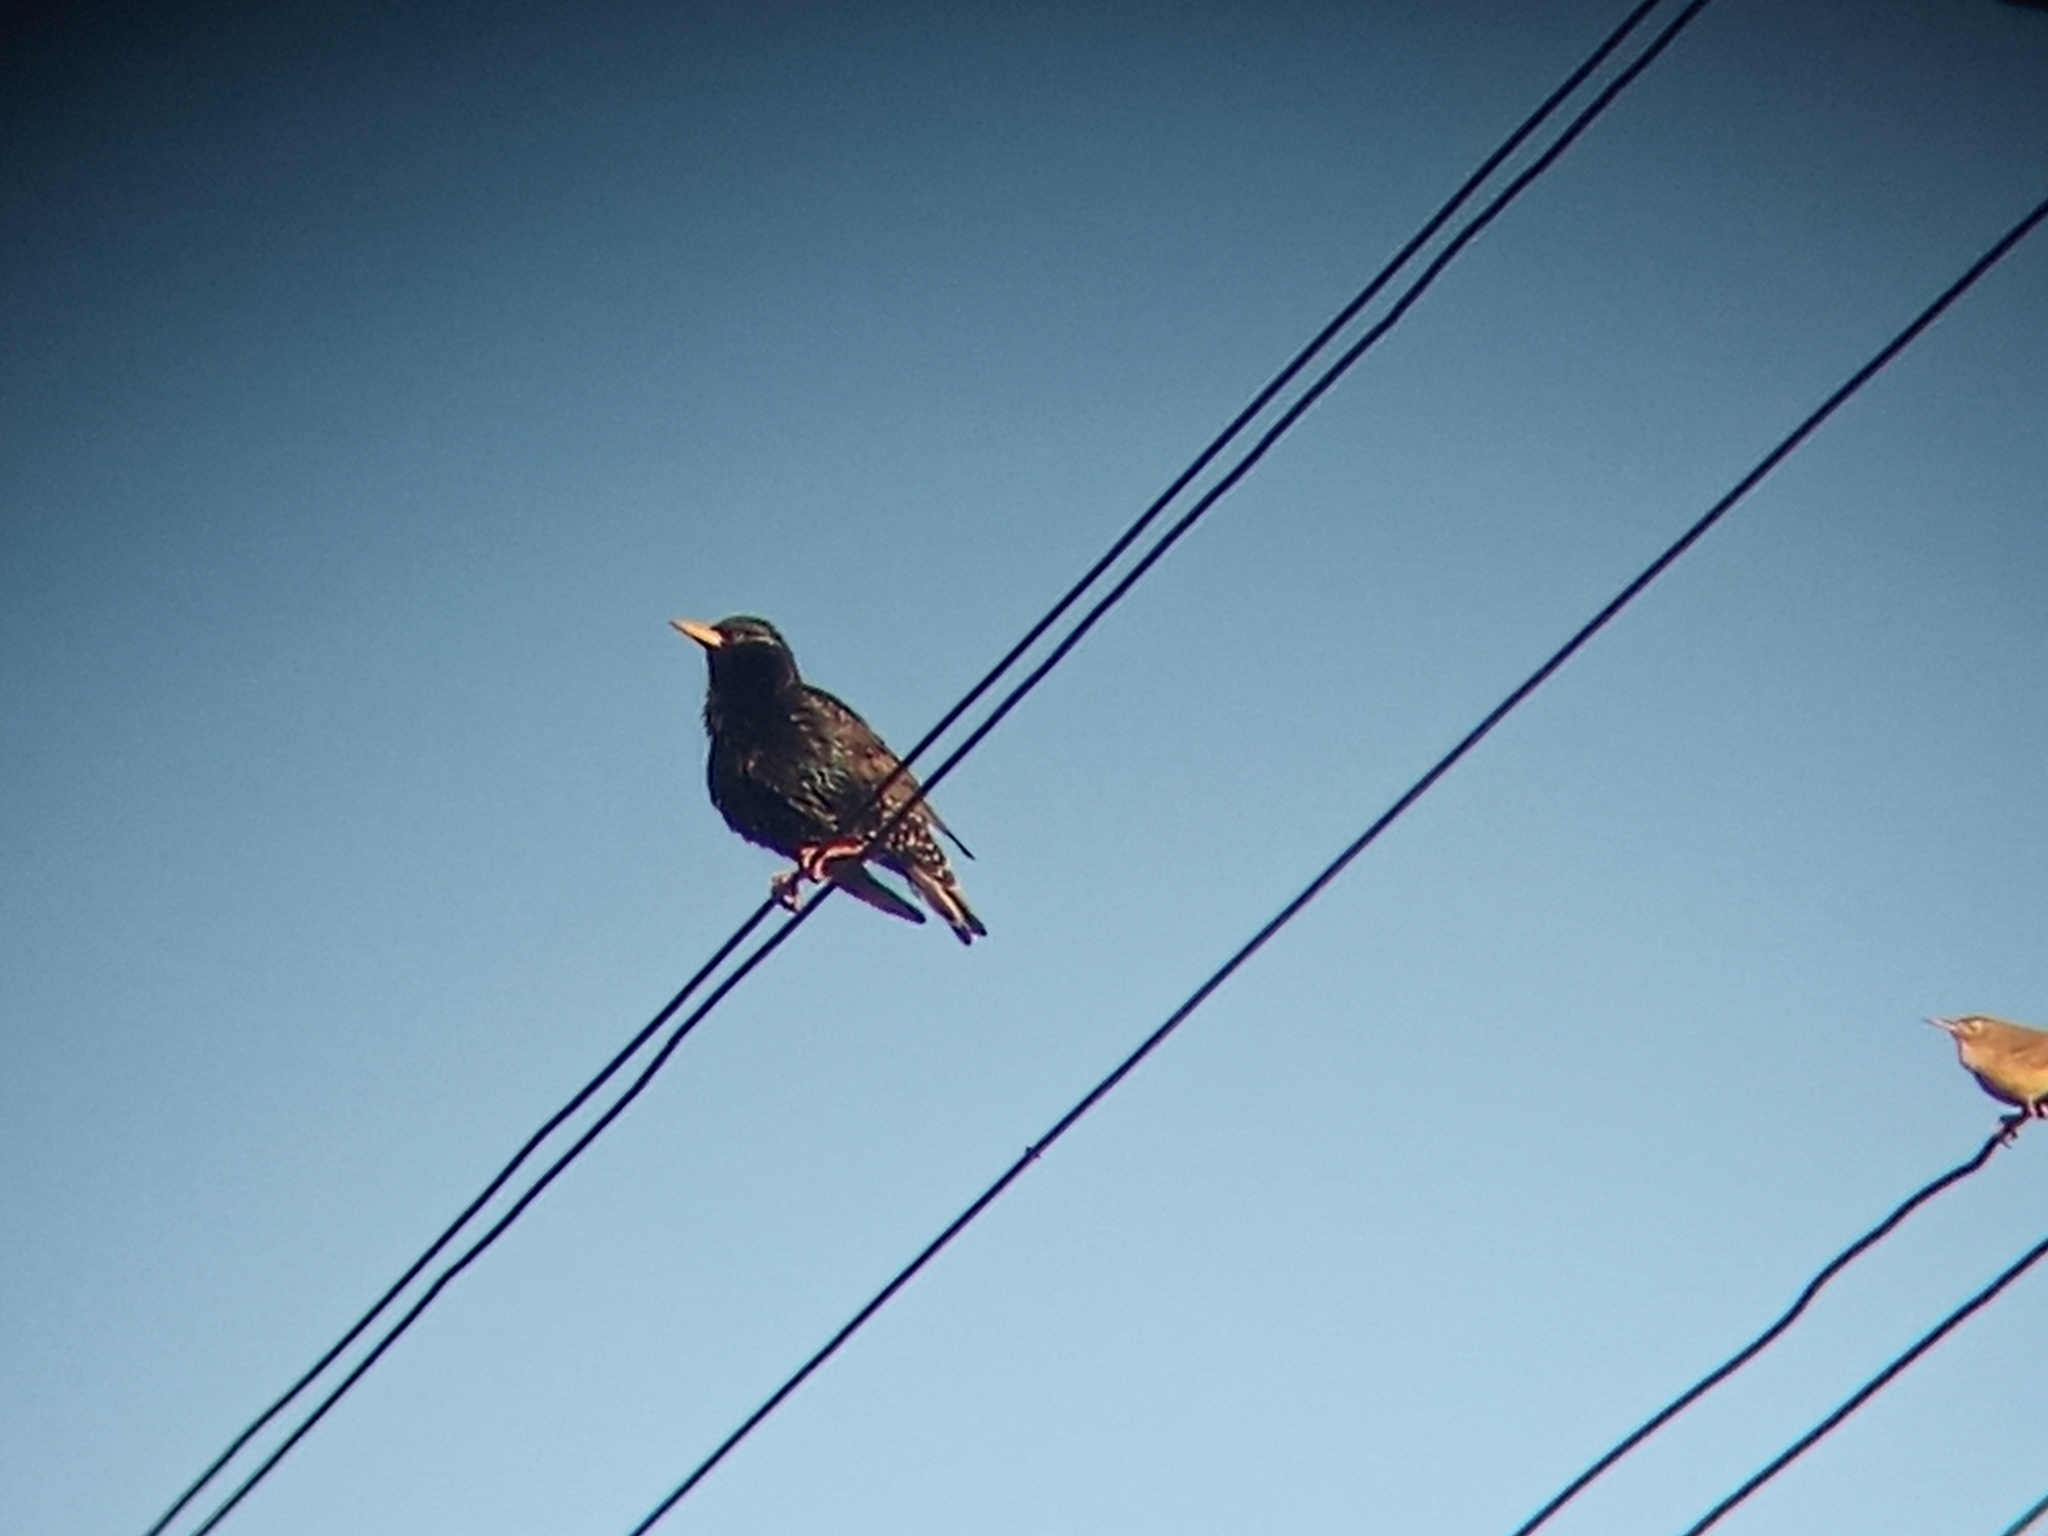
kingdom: Animalia
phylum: Chordata
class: Aves
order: Passeriformes
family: Sturnidae
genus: Sturnus
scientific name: Sturnus vulgaris
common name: Common starling
